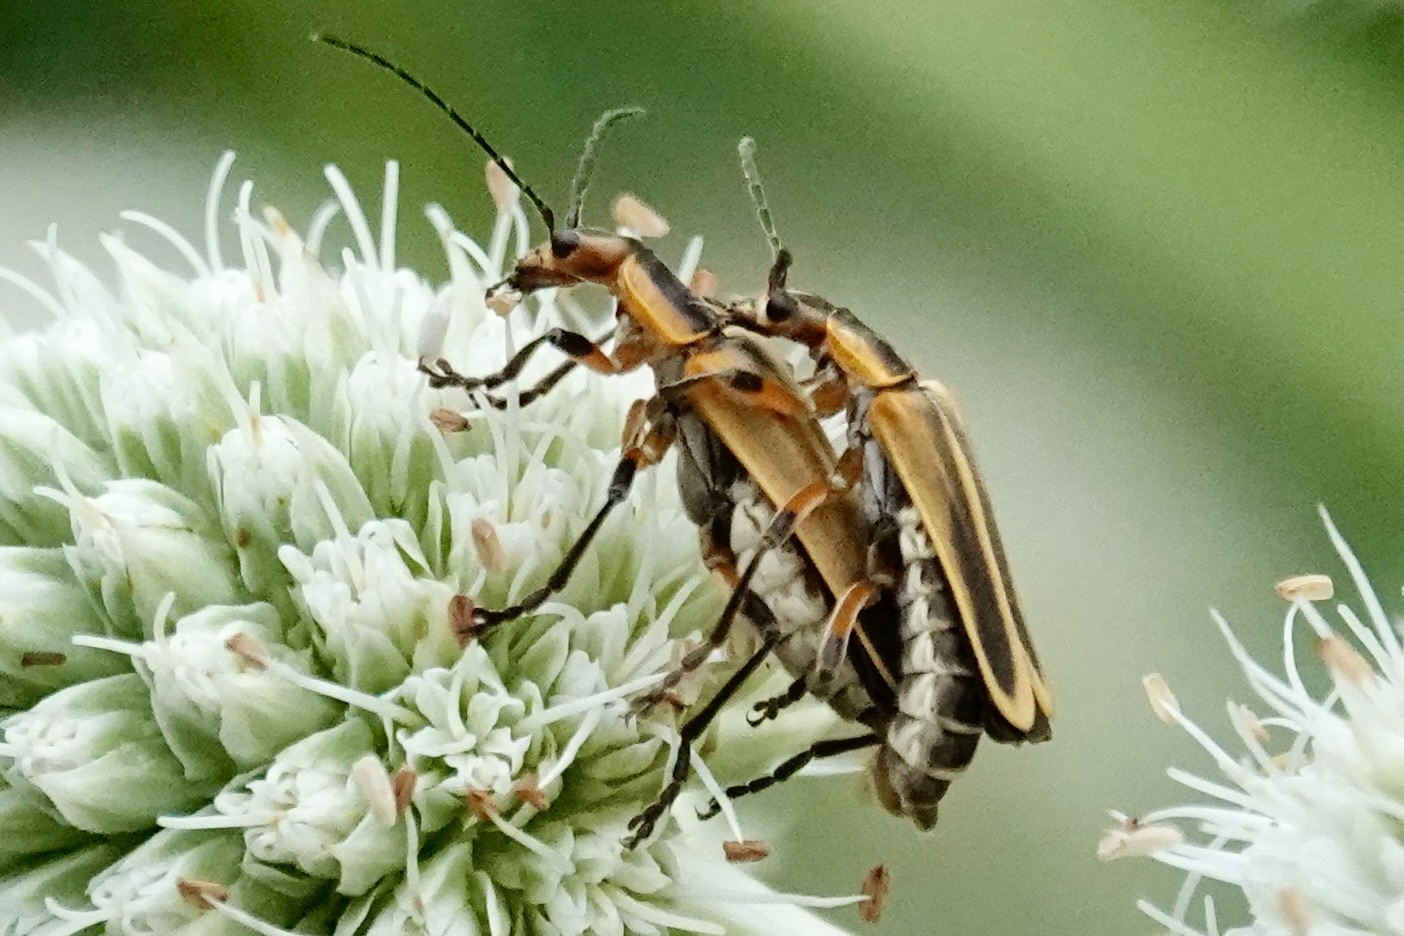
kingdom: Animalia
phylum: Arthropoda
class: Insecta
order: Coleoptera
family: Cantharidae
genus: Chauliognathus
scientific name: Chauliognathus marginatus
